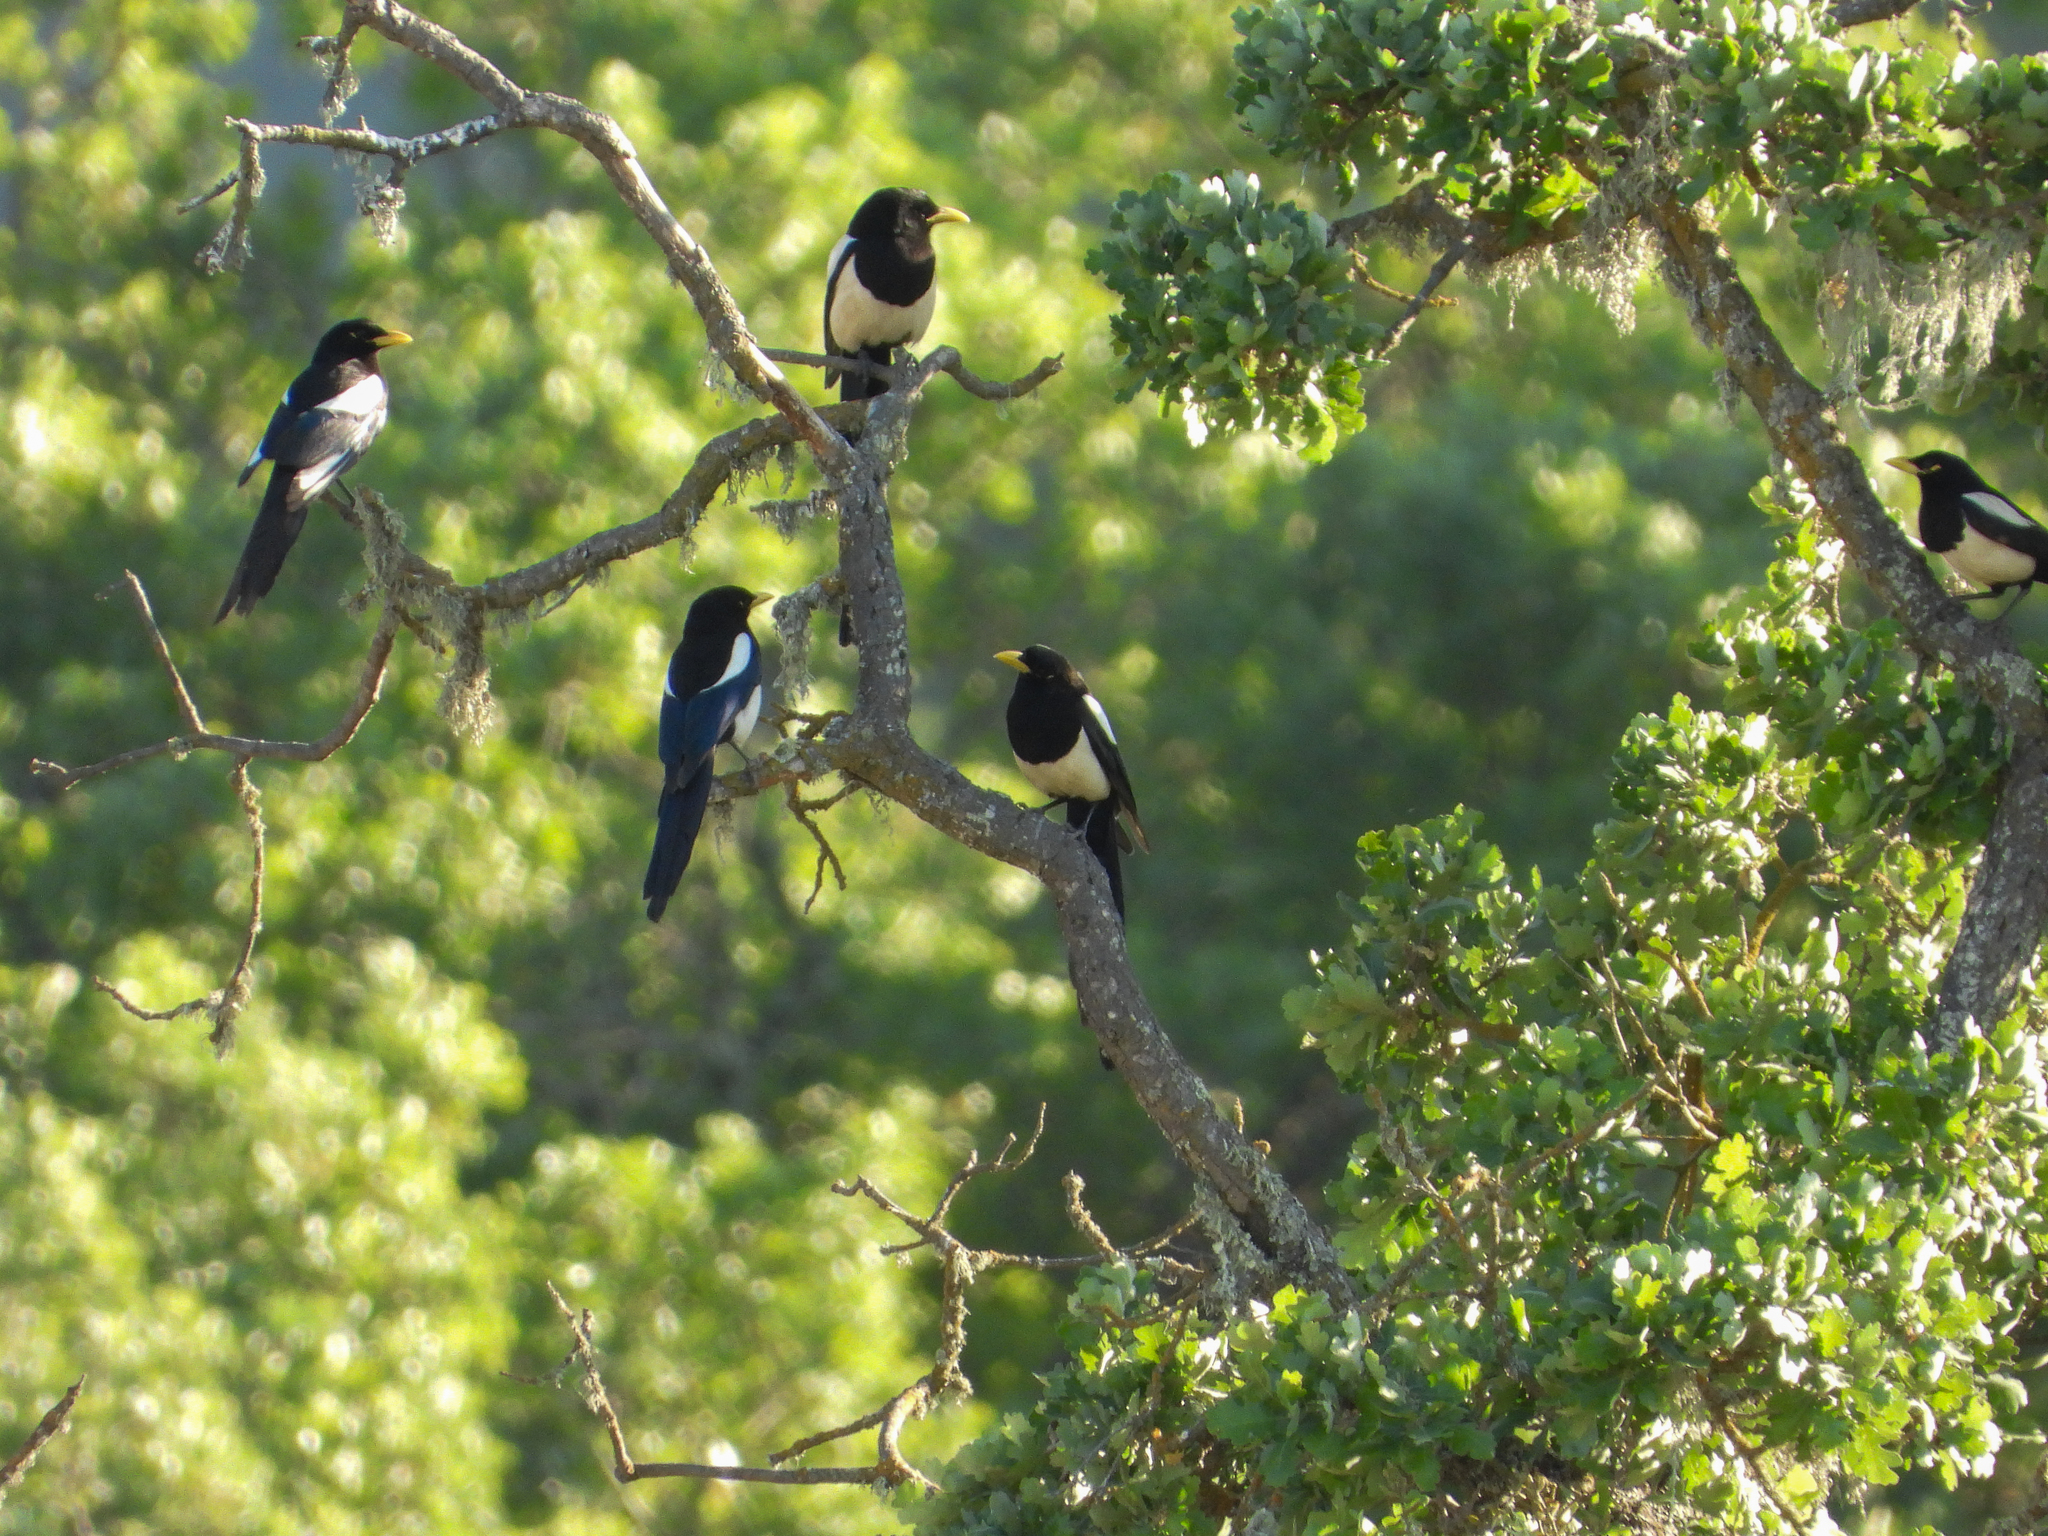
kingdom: Animalia
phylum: Chordata
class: Aves
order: Passeriformes
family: Corvidae
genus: Pica
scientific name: Pica nuttalli
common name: Yellow-billed magpie
